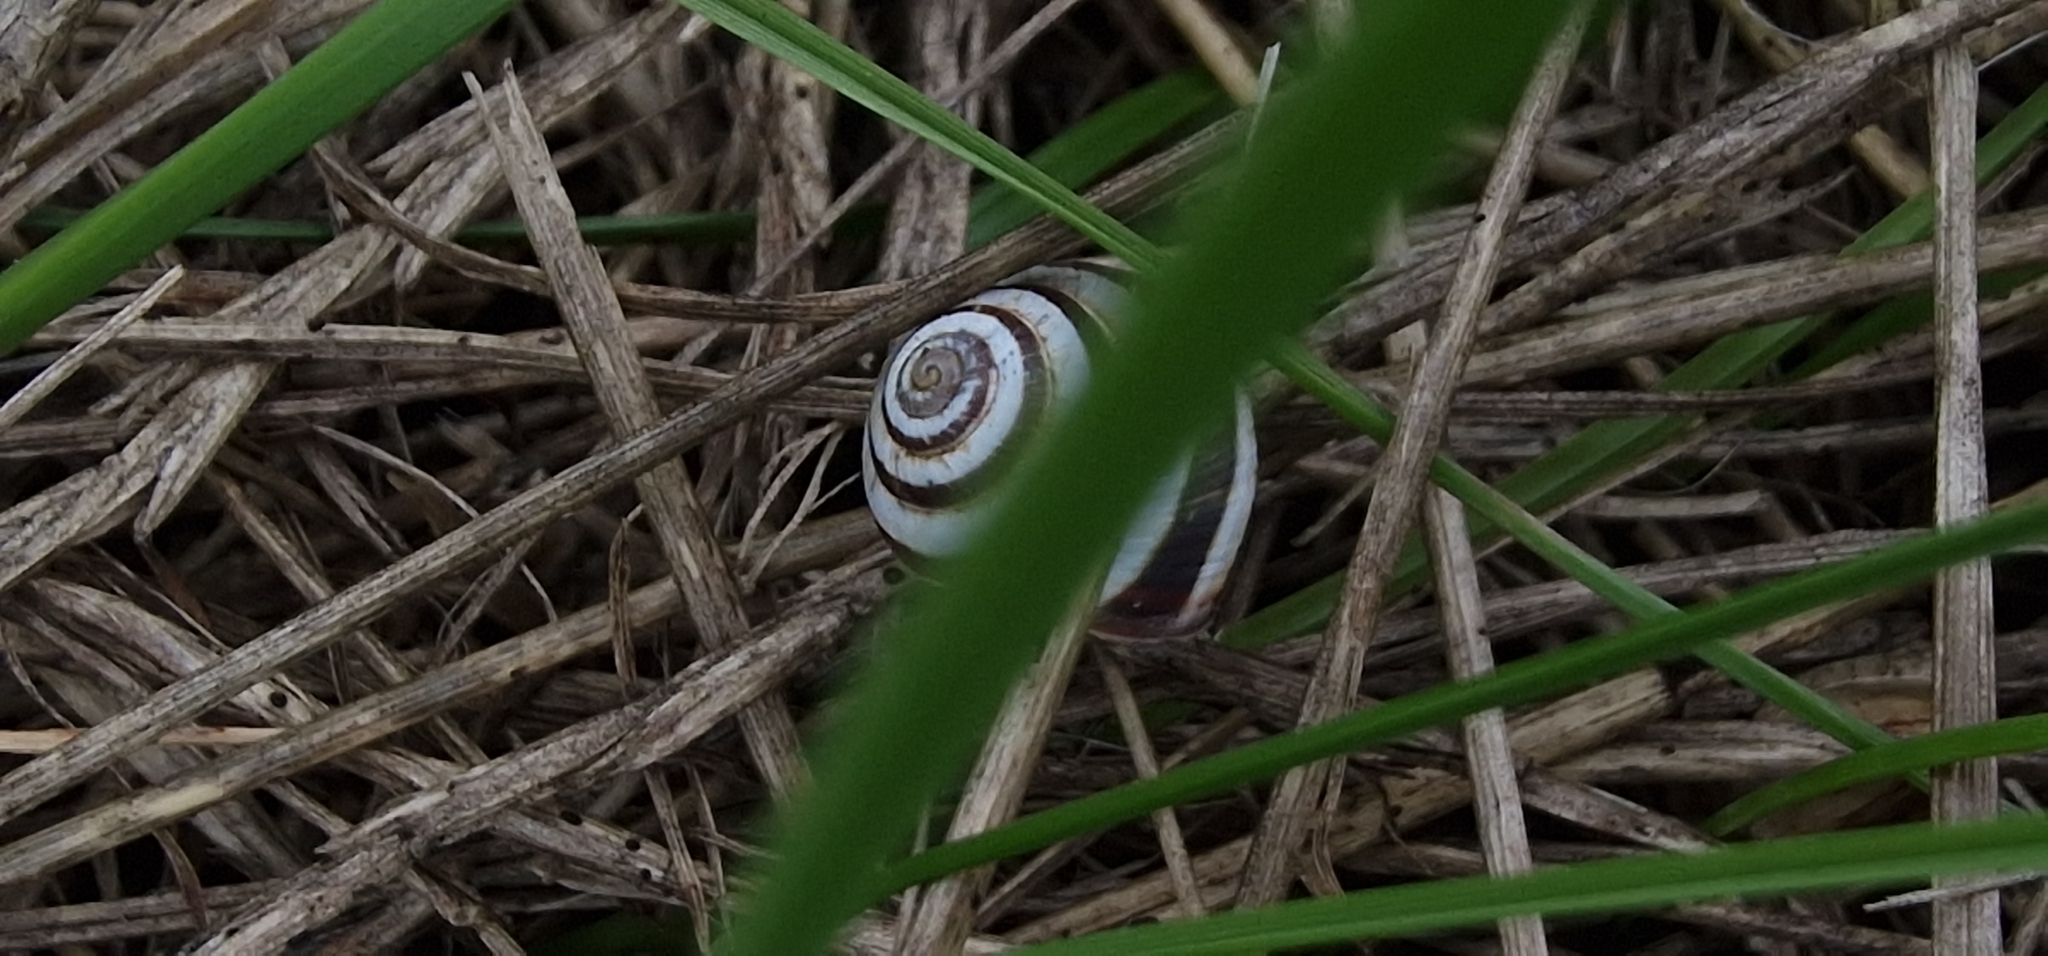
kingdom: Animalia
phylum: Mollusca
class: Gastropoda
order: Stylommatophora
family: Geomitridae
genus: Cernuella
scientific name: Cernuella virgata
